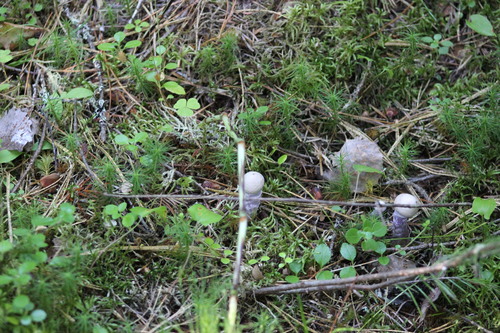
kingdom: Fungi
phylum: Basidiomycota
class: Agaricomycetes
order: Agaricales
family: Cortinariaceae
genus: Cortinarius
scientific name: Cortinarius
